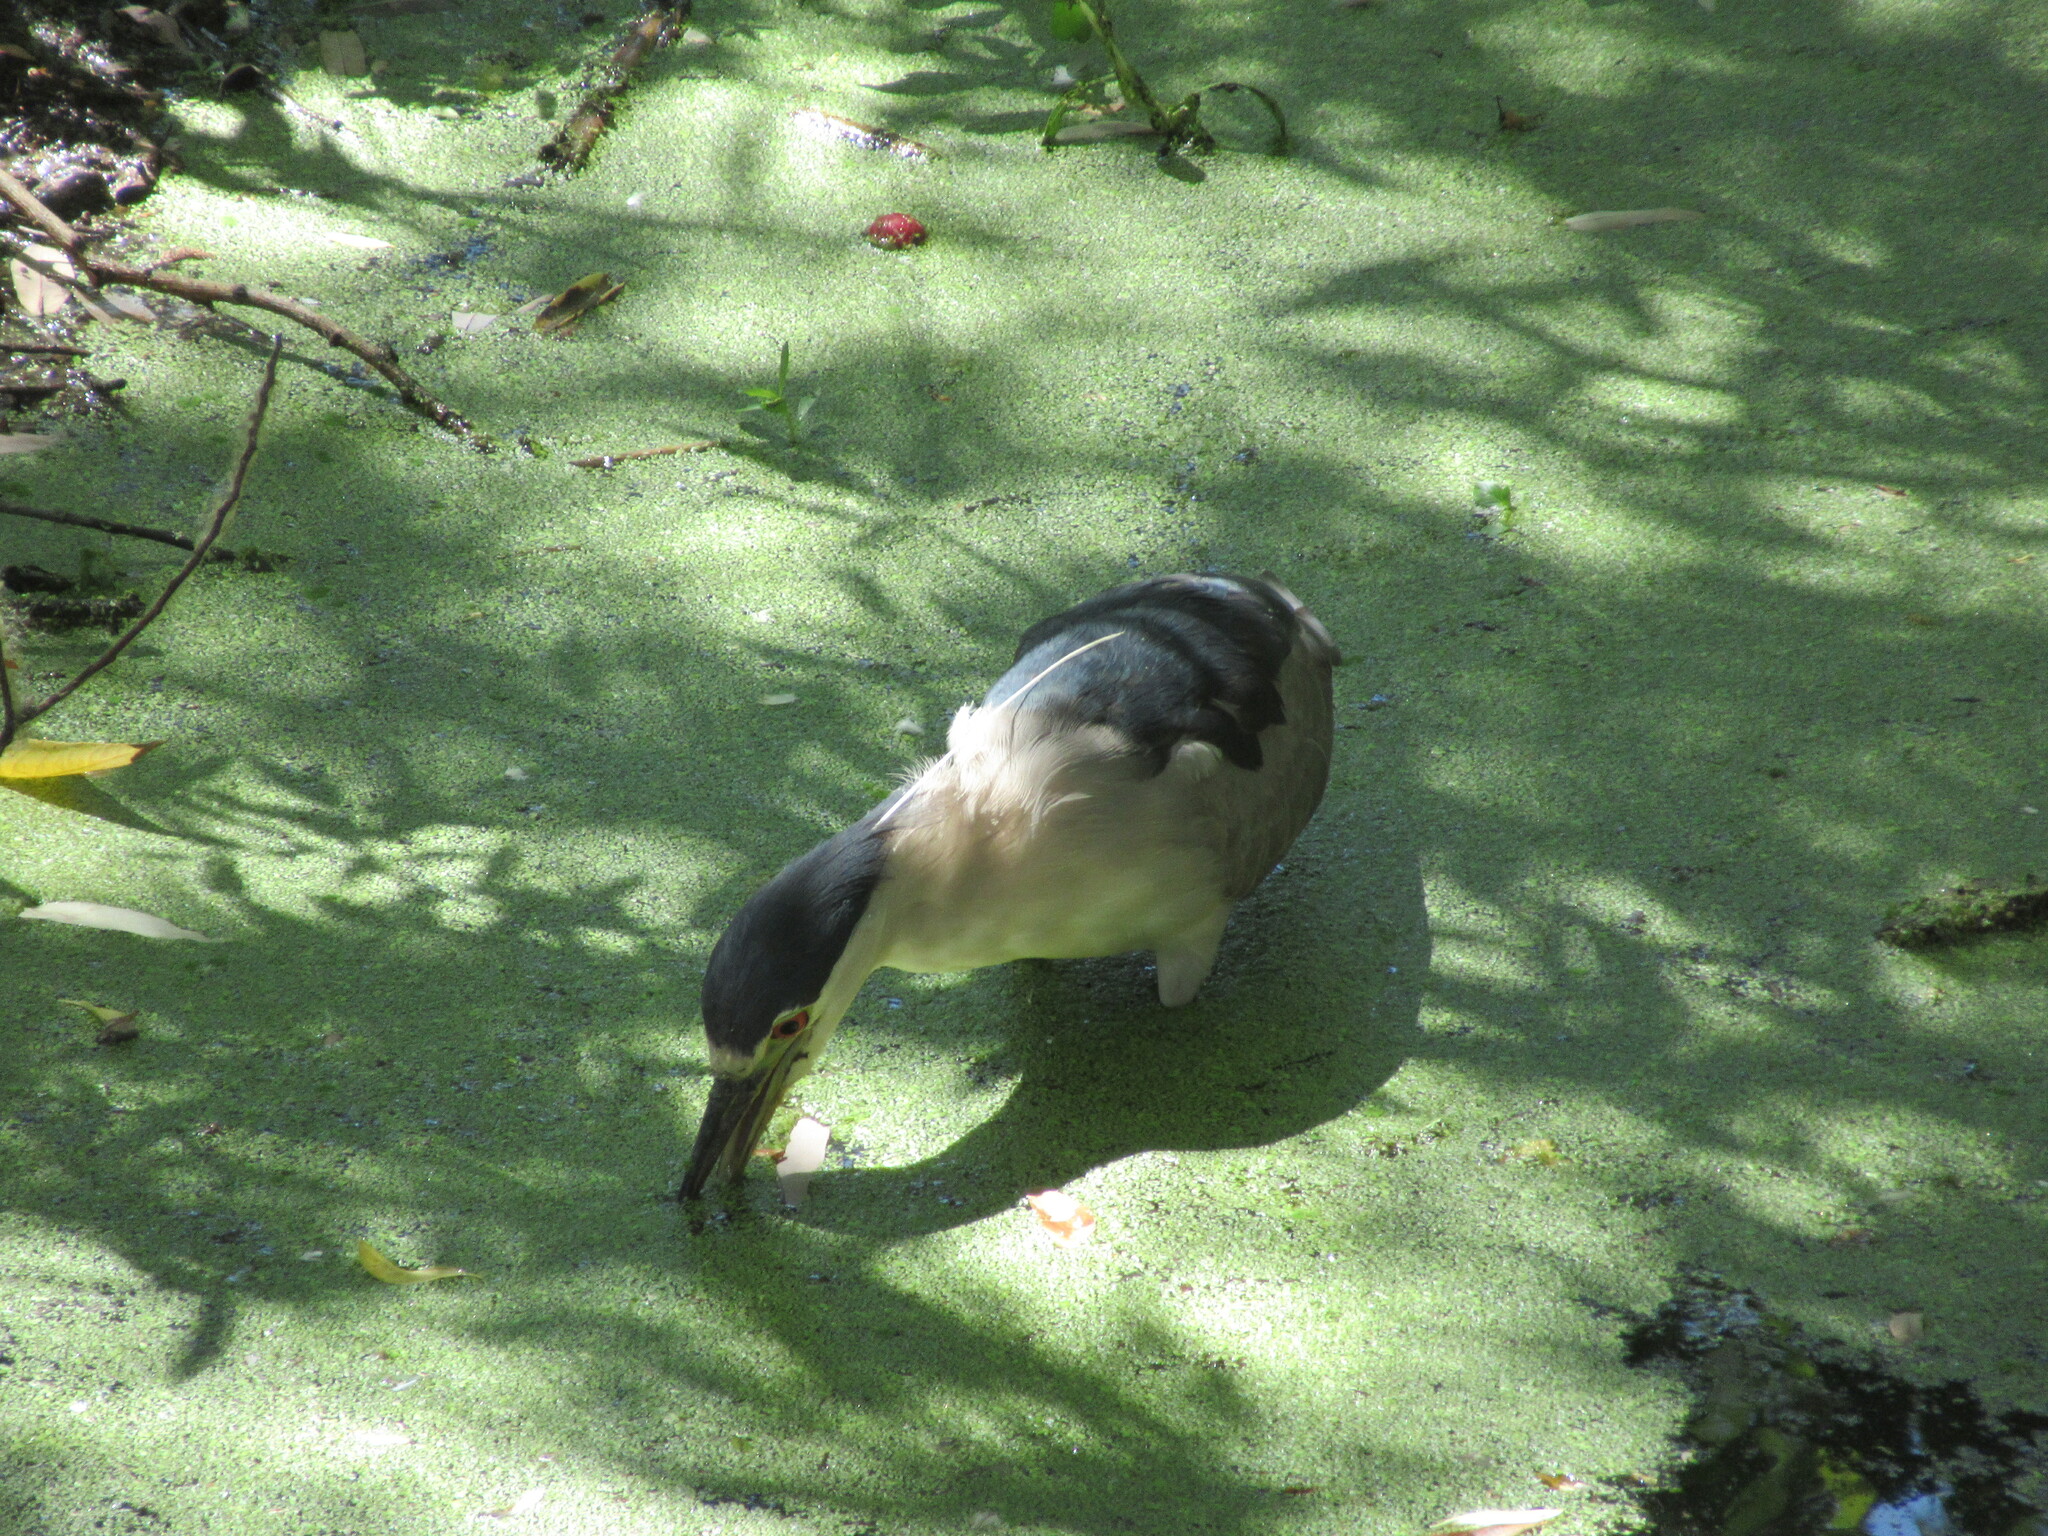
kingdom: Animalia
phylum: Chordata
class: Aves
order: Pelecaniformes
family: Ardeidae
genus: Nycticorax
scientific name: Nycticorax nycticorax
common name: Black-crowned night heron
